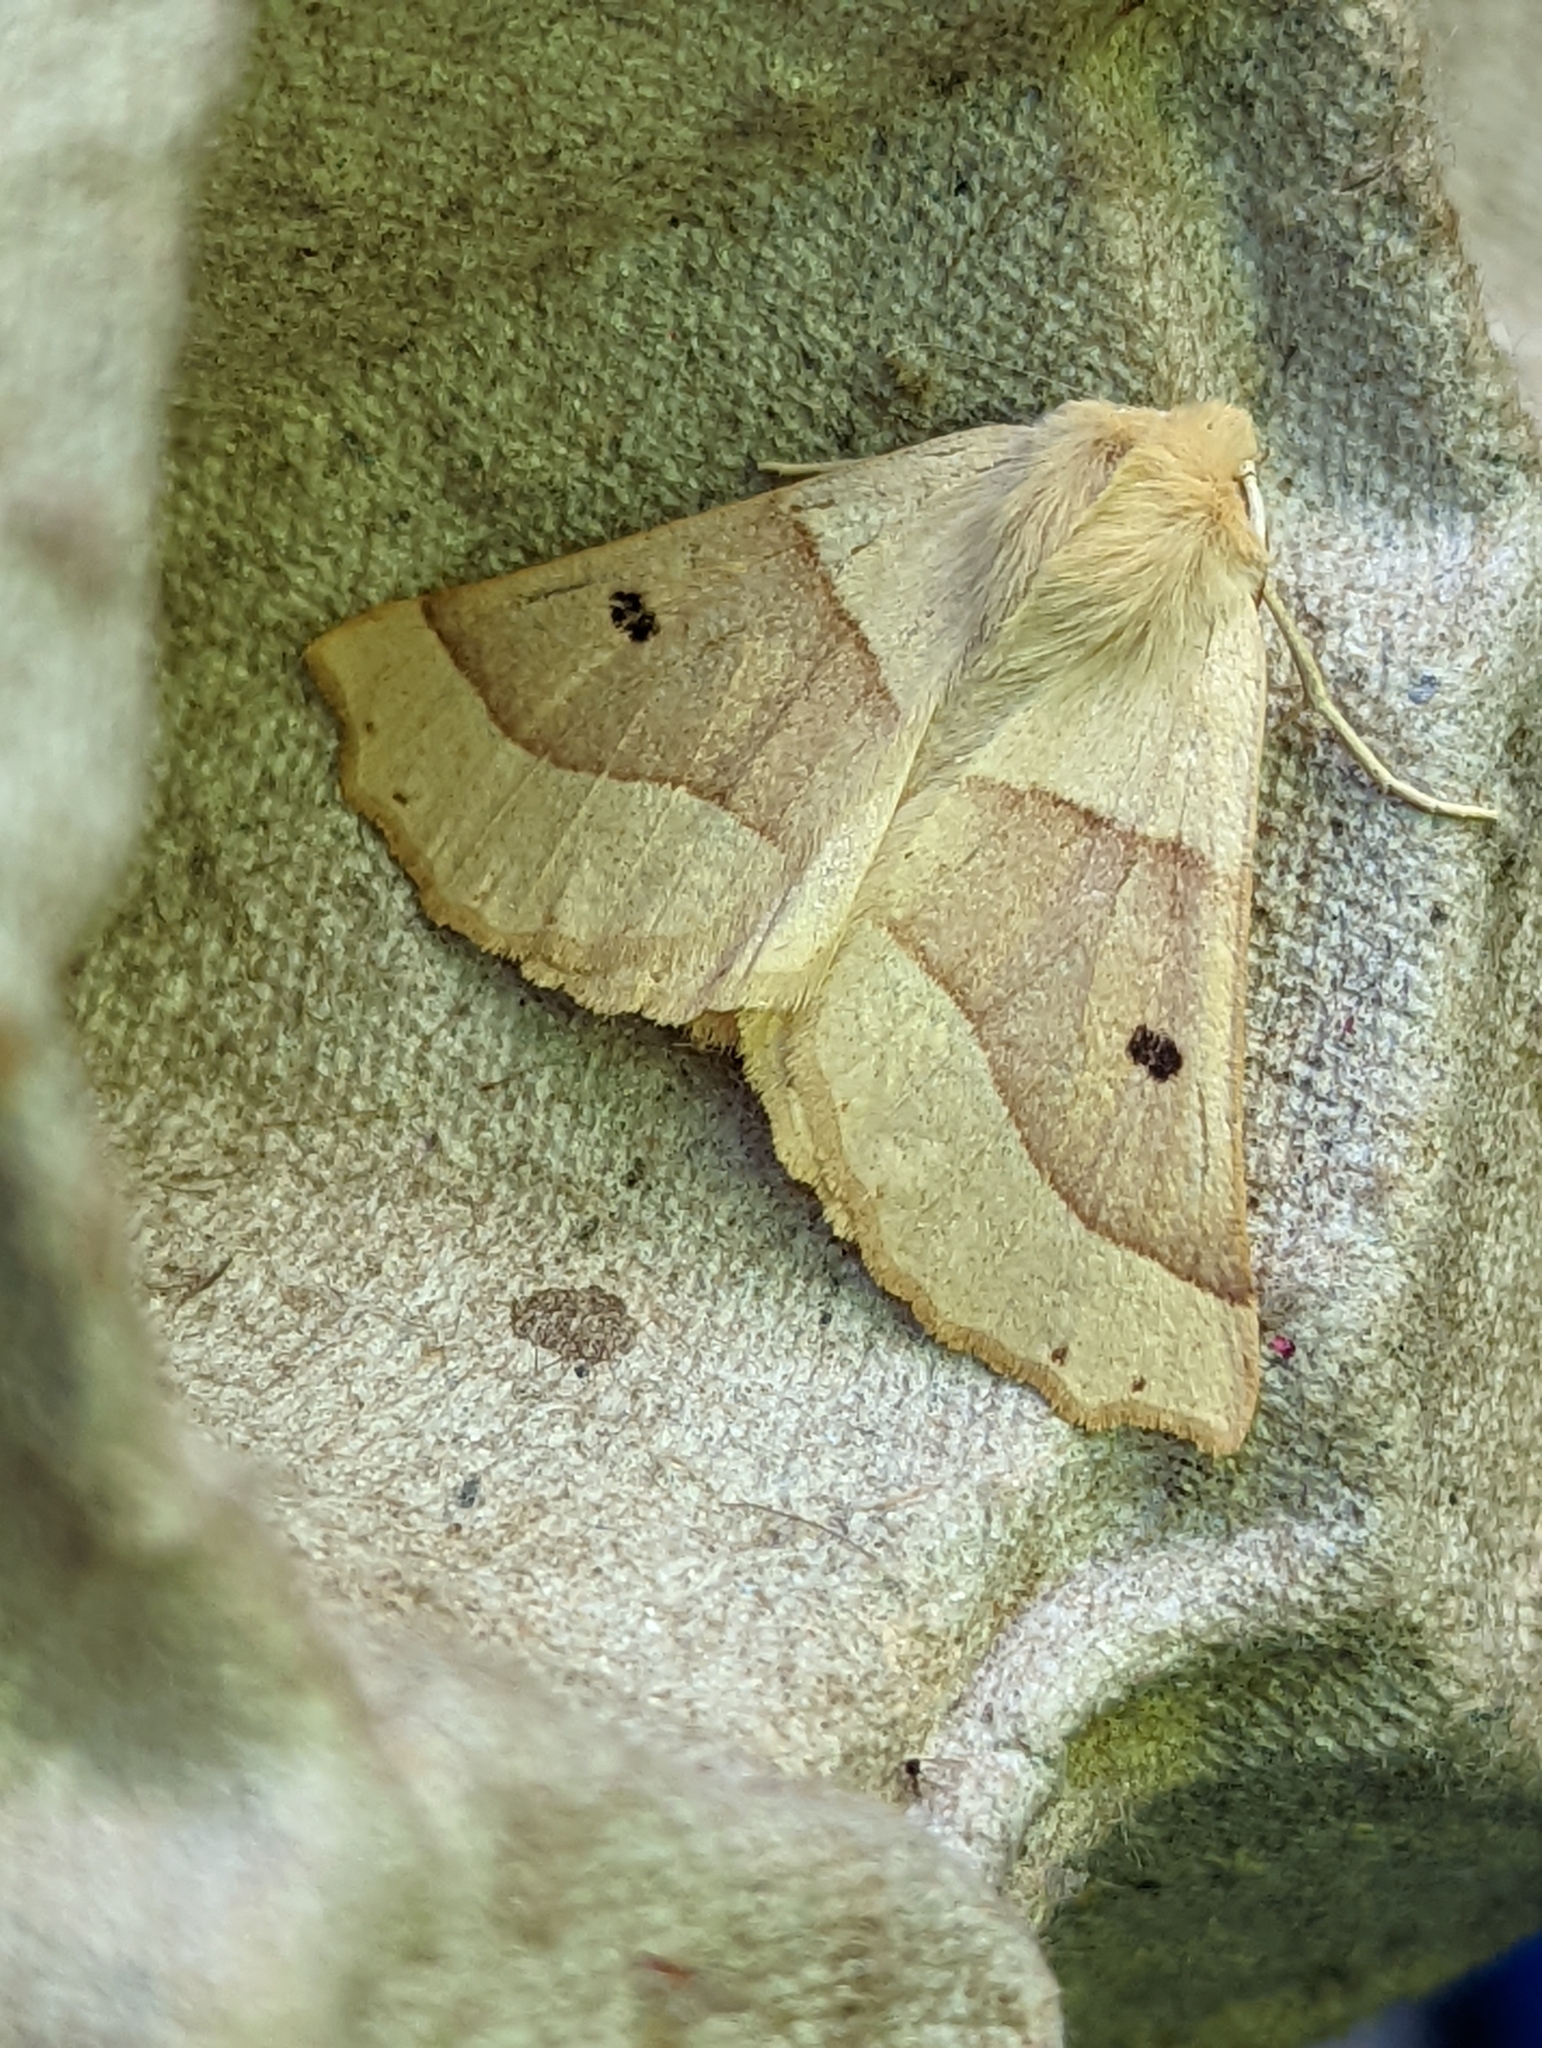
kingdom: Animalia
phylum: Arthropoda
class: Insecta
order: Lepidoptera
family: Geometridae
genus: Crocallis
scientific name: Crocallis elinguaria
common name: Scalloped oak
